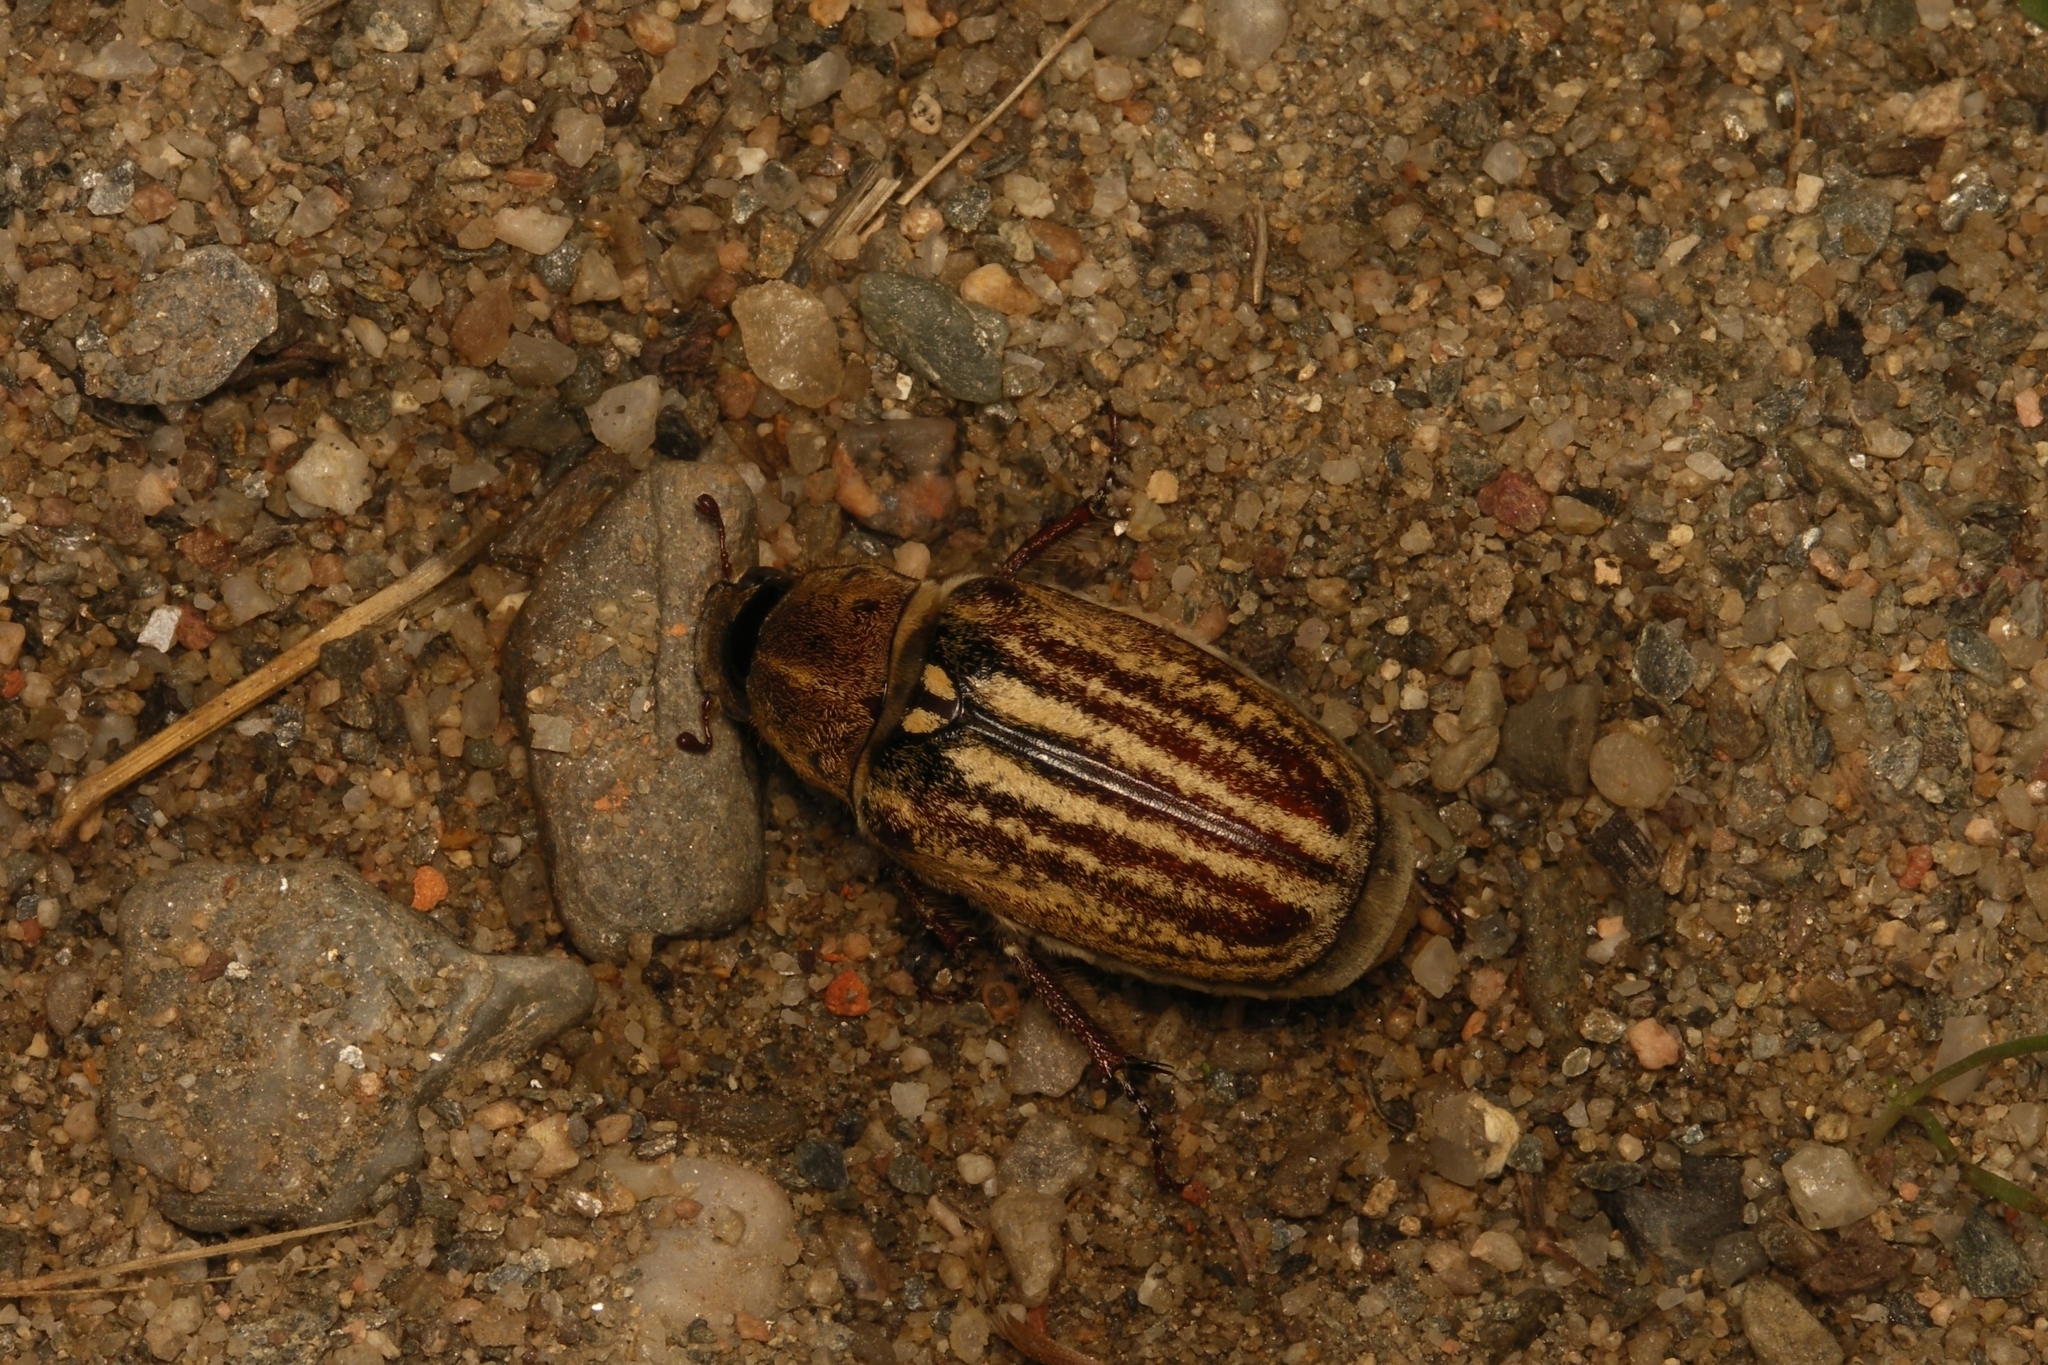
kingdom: Animalia
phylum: Arthropoda
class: Insecta
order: Coleoptera
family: Scarabaeidae
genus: Anoxia
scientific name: Anoxia australis
